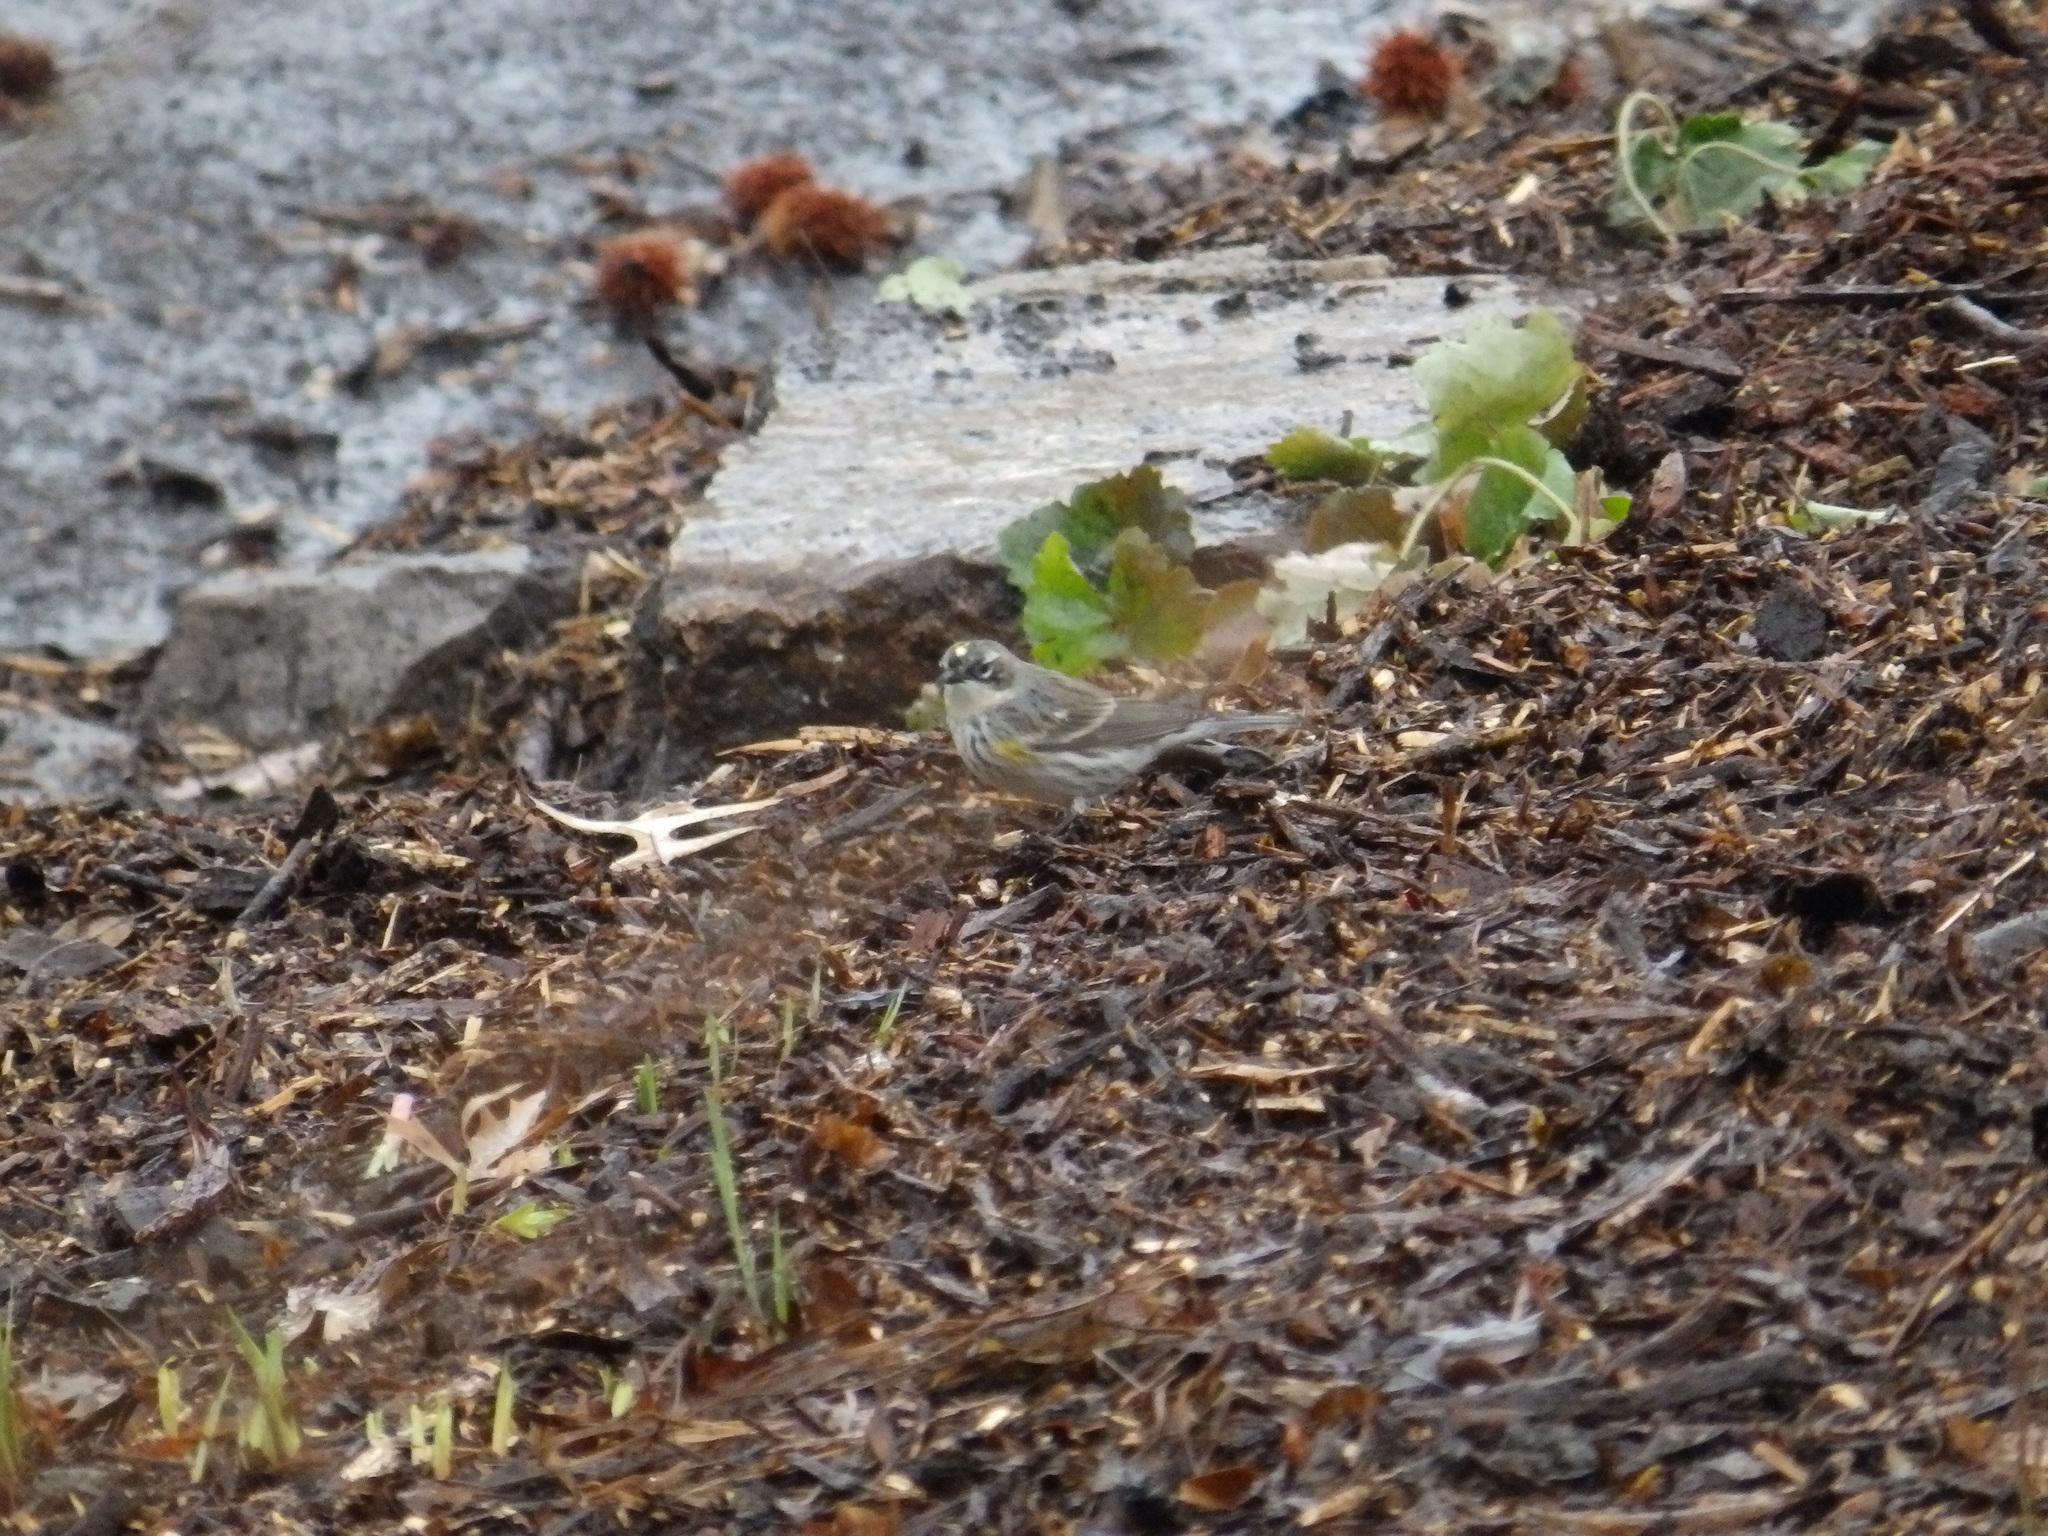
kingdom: Animalia
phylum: Chordata
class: Aves
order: Passeriformes
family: Parulidae
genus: Setophaga
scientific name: Setophaga coronata
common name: Myrtle warbler
